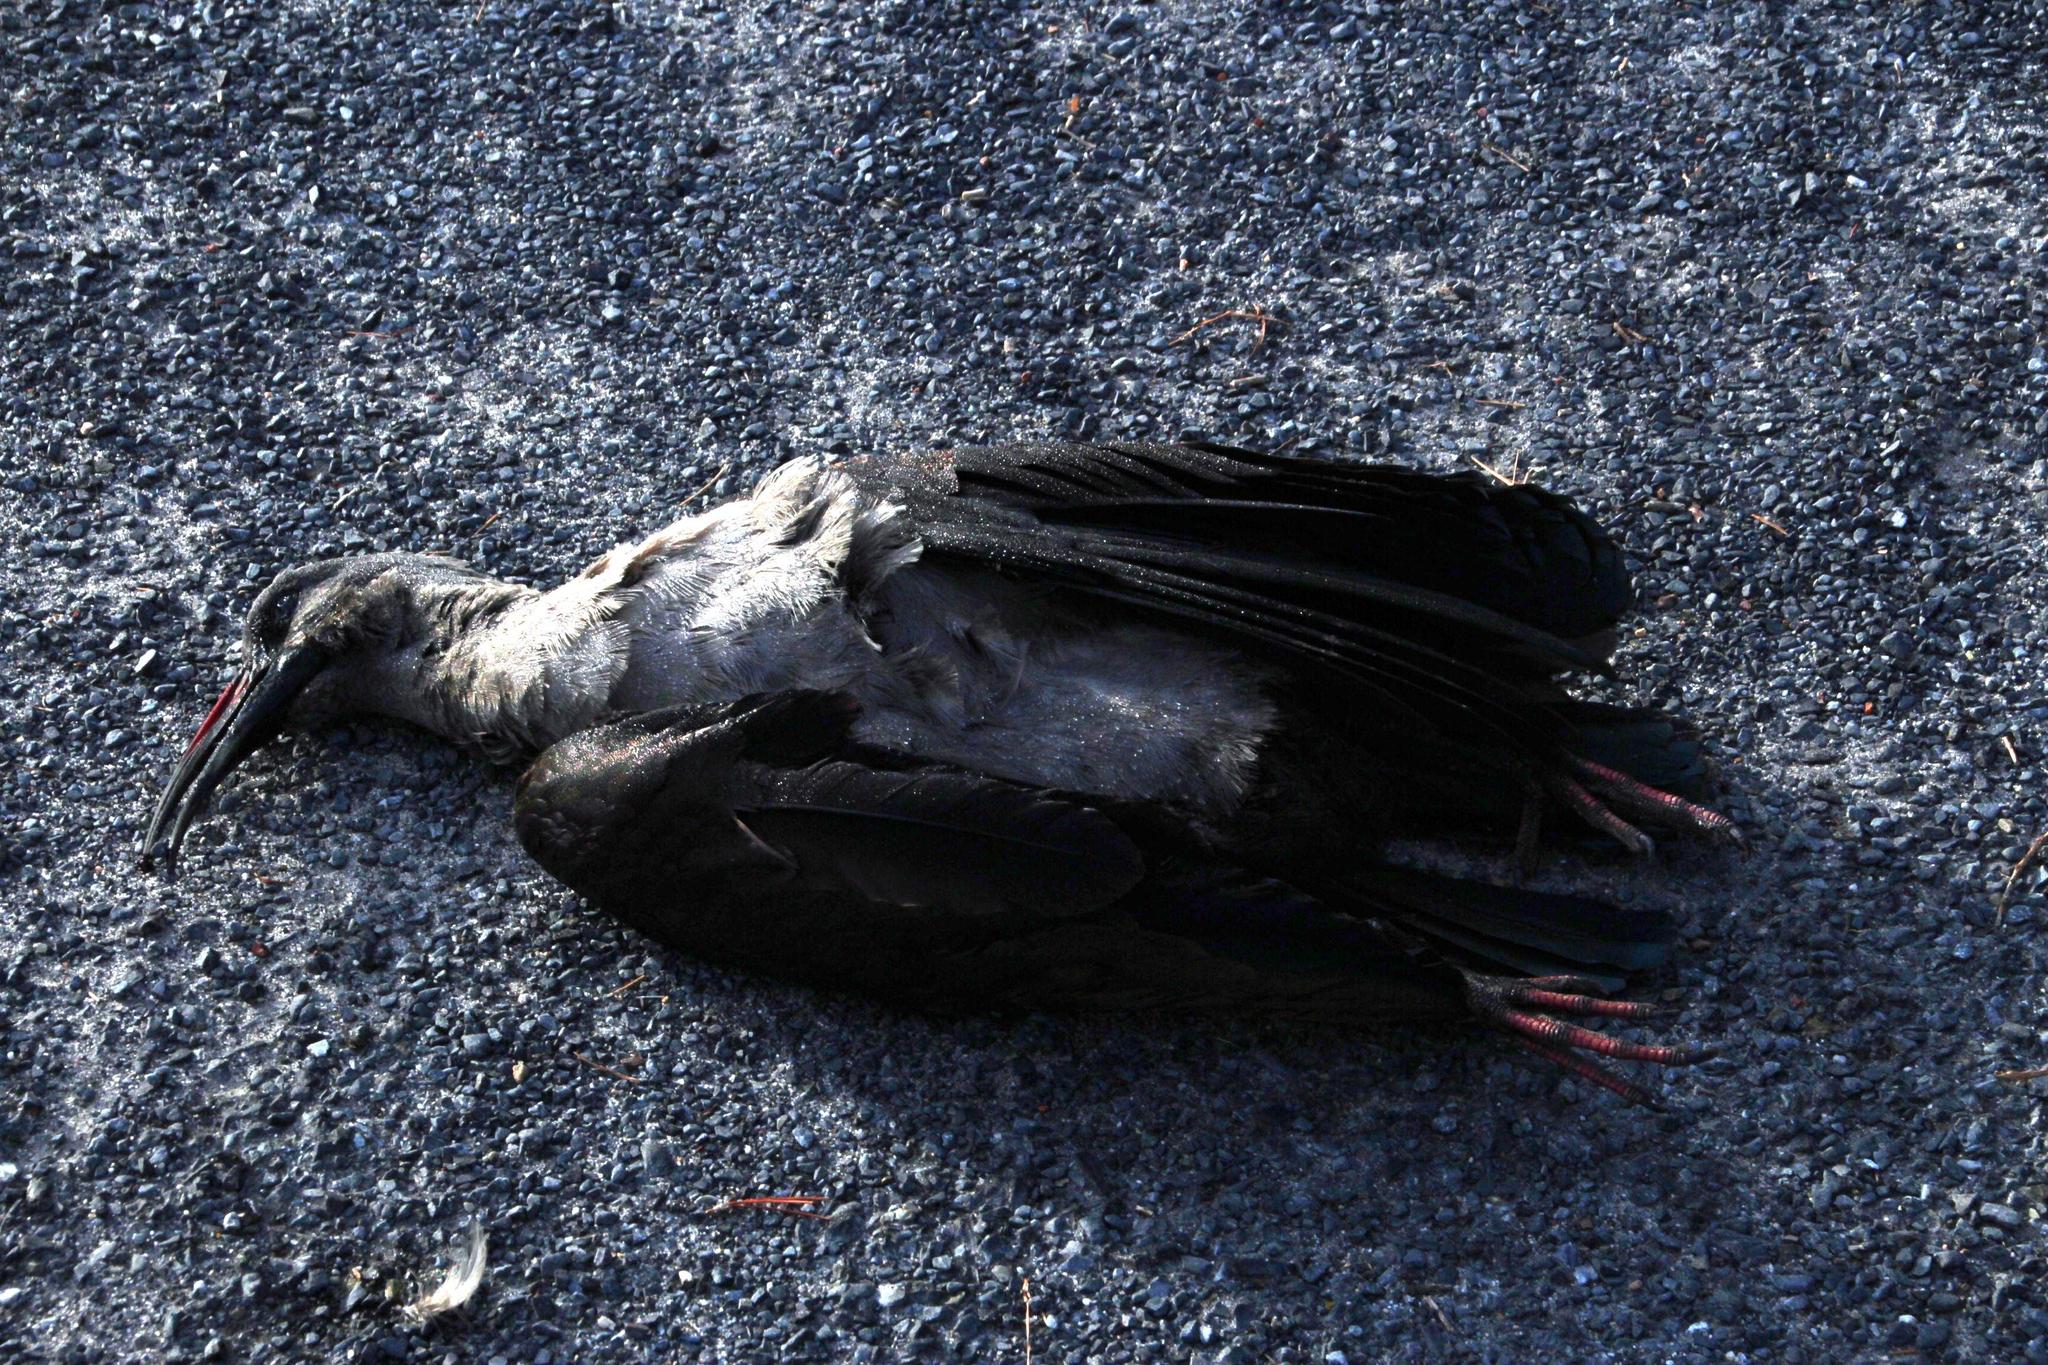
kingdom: Animalia
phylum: Chordata
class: Aves
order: Pelecaniformes
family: Threskiornithidae
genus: Bostrychia
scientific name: Bostrychia hagedash
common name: Hadada ibis
